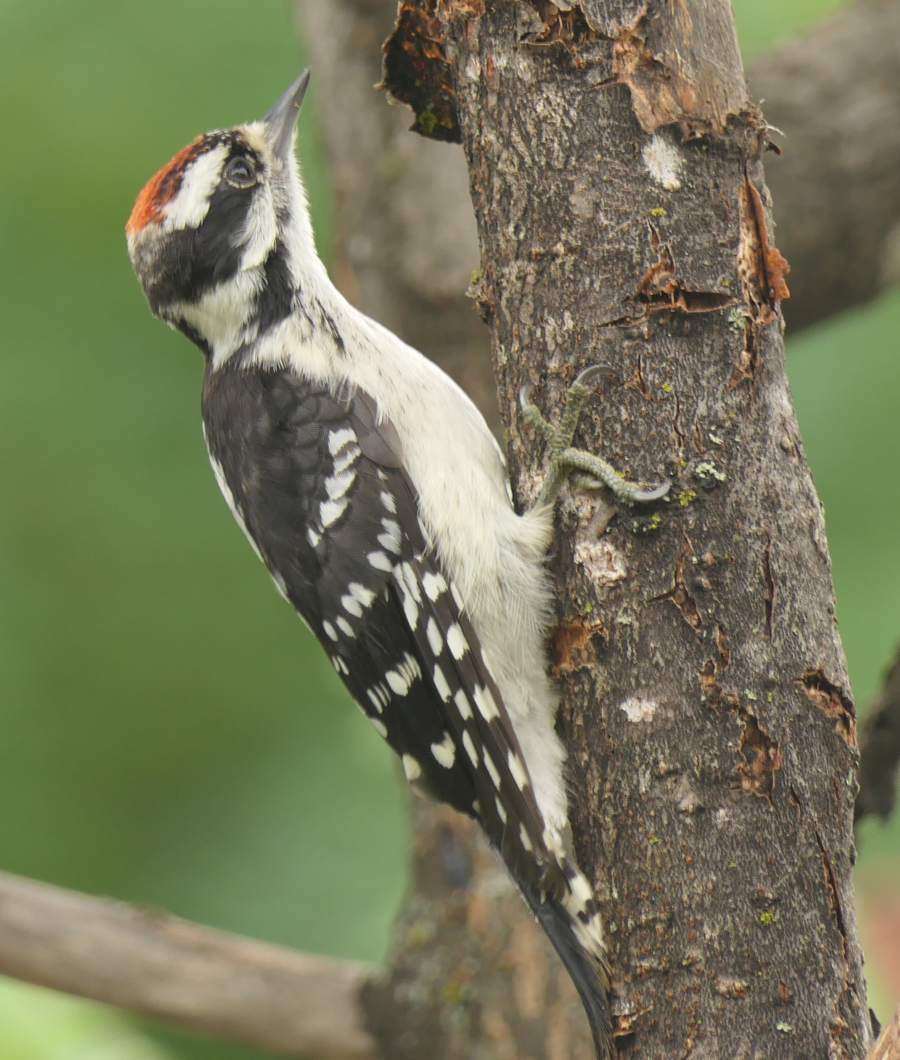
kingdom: Animalia
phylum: Chordata
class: Aves
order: Piciformes
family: Picidae
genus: Dryobates
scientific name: Dryobates pubescens
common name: Downy woodpecker
